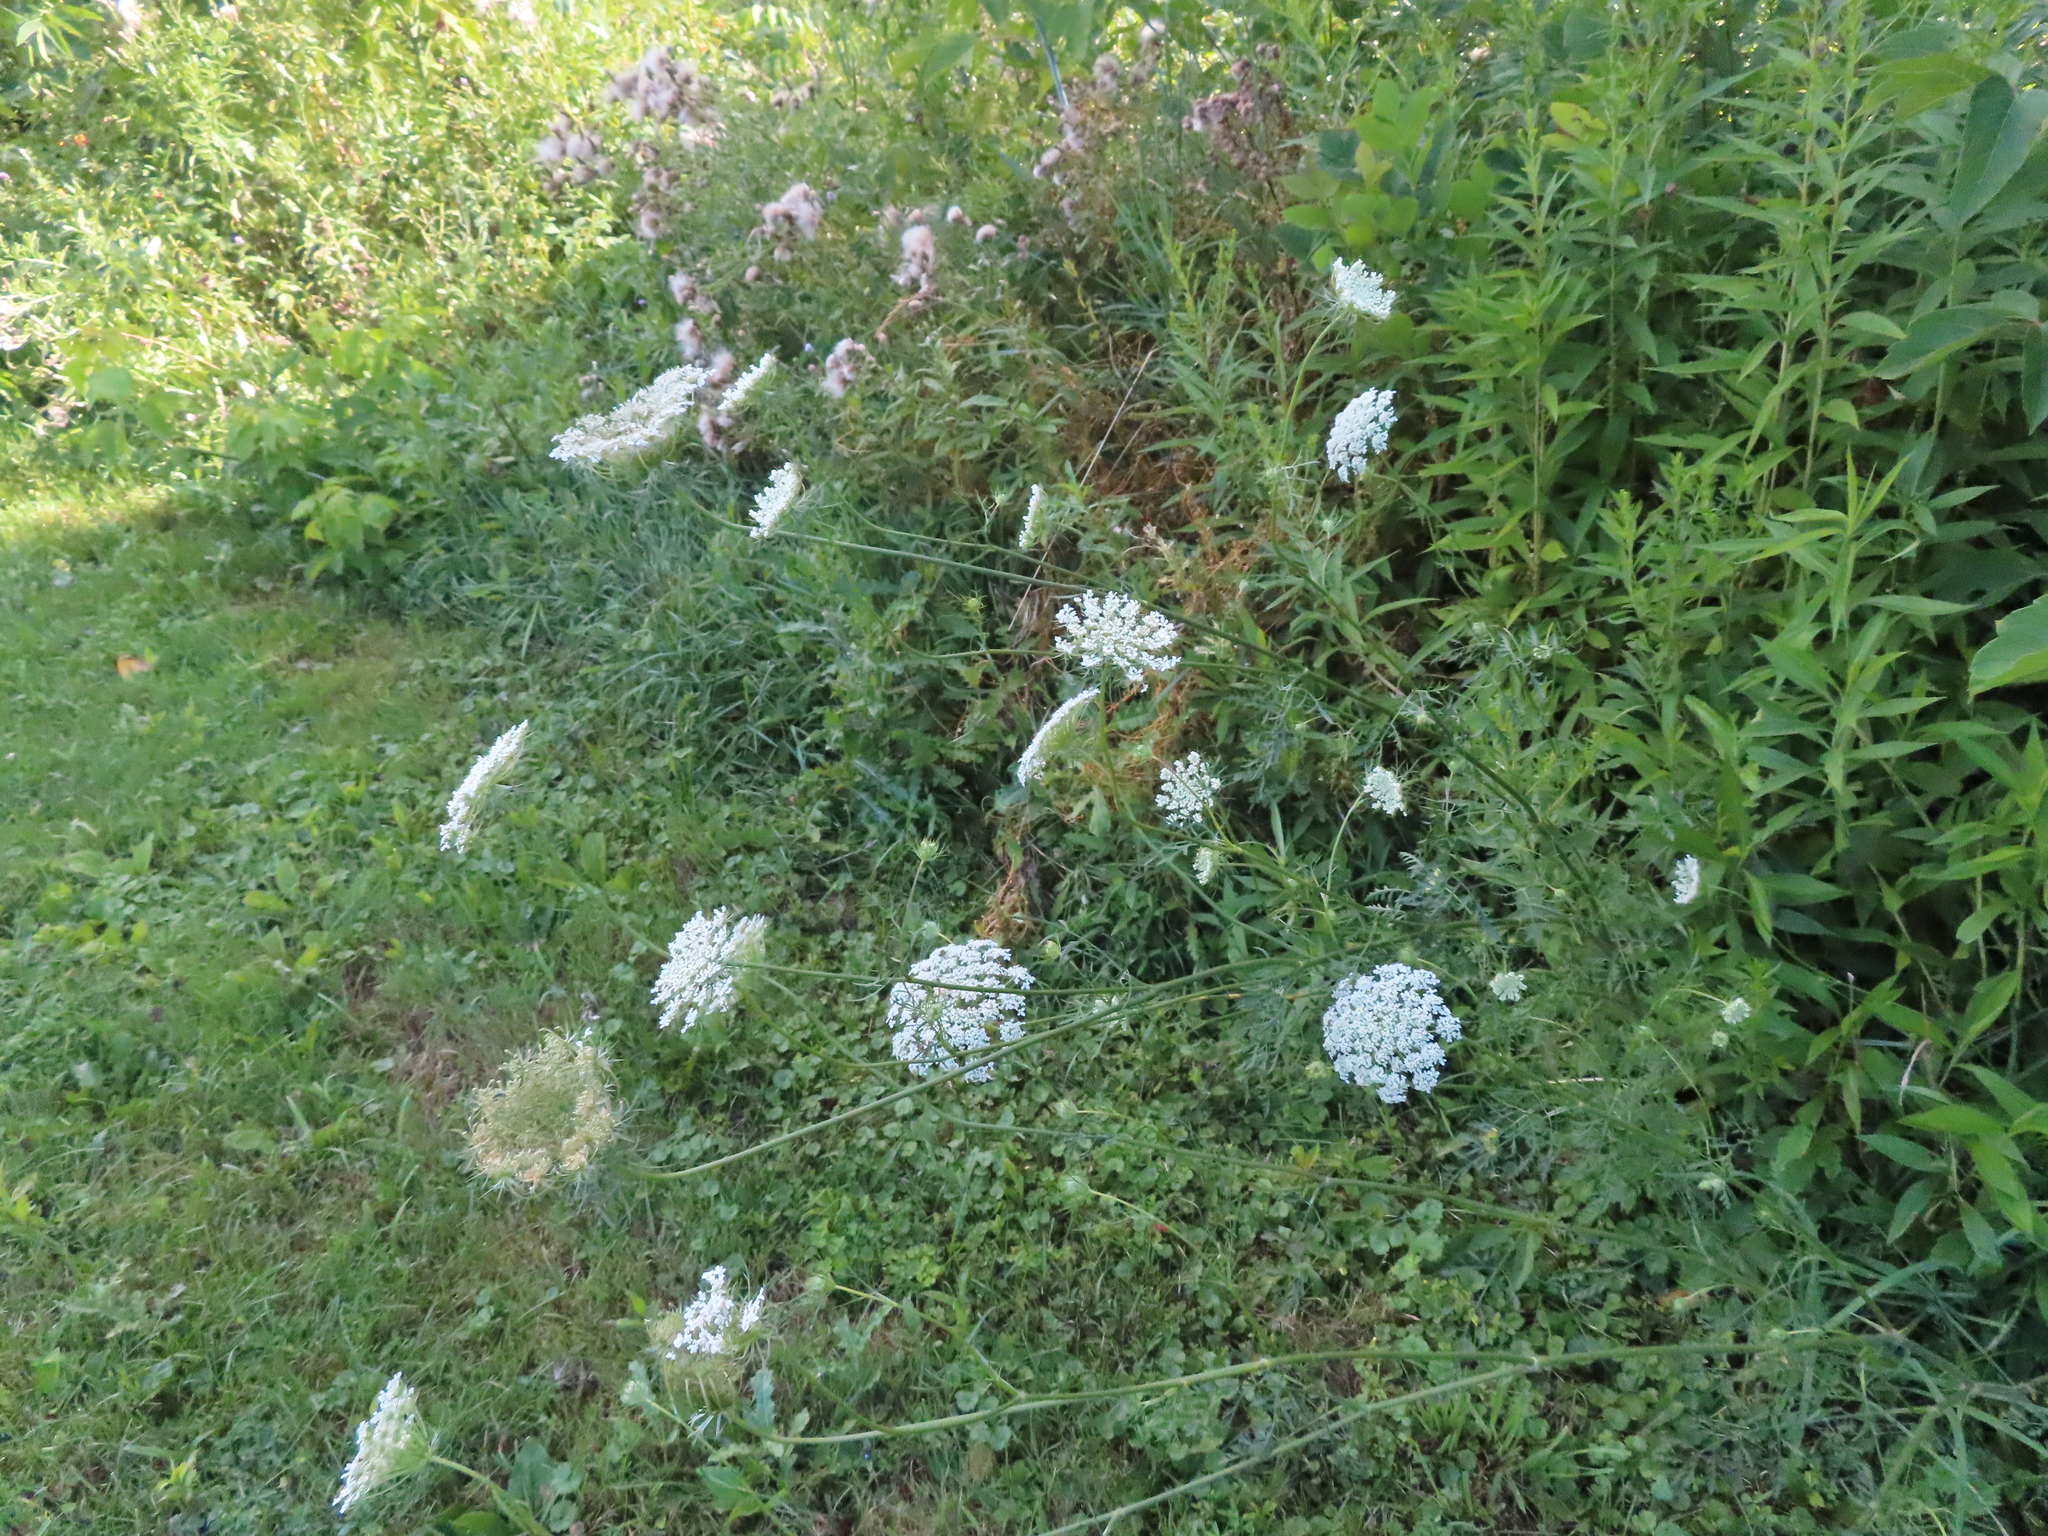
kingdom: Plantae
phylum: Tracheophyta
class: Magnoliopsida
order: Apiales
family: Apiaceae
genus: Daucus
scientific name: Daucus carota
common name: Wild carrot
